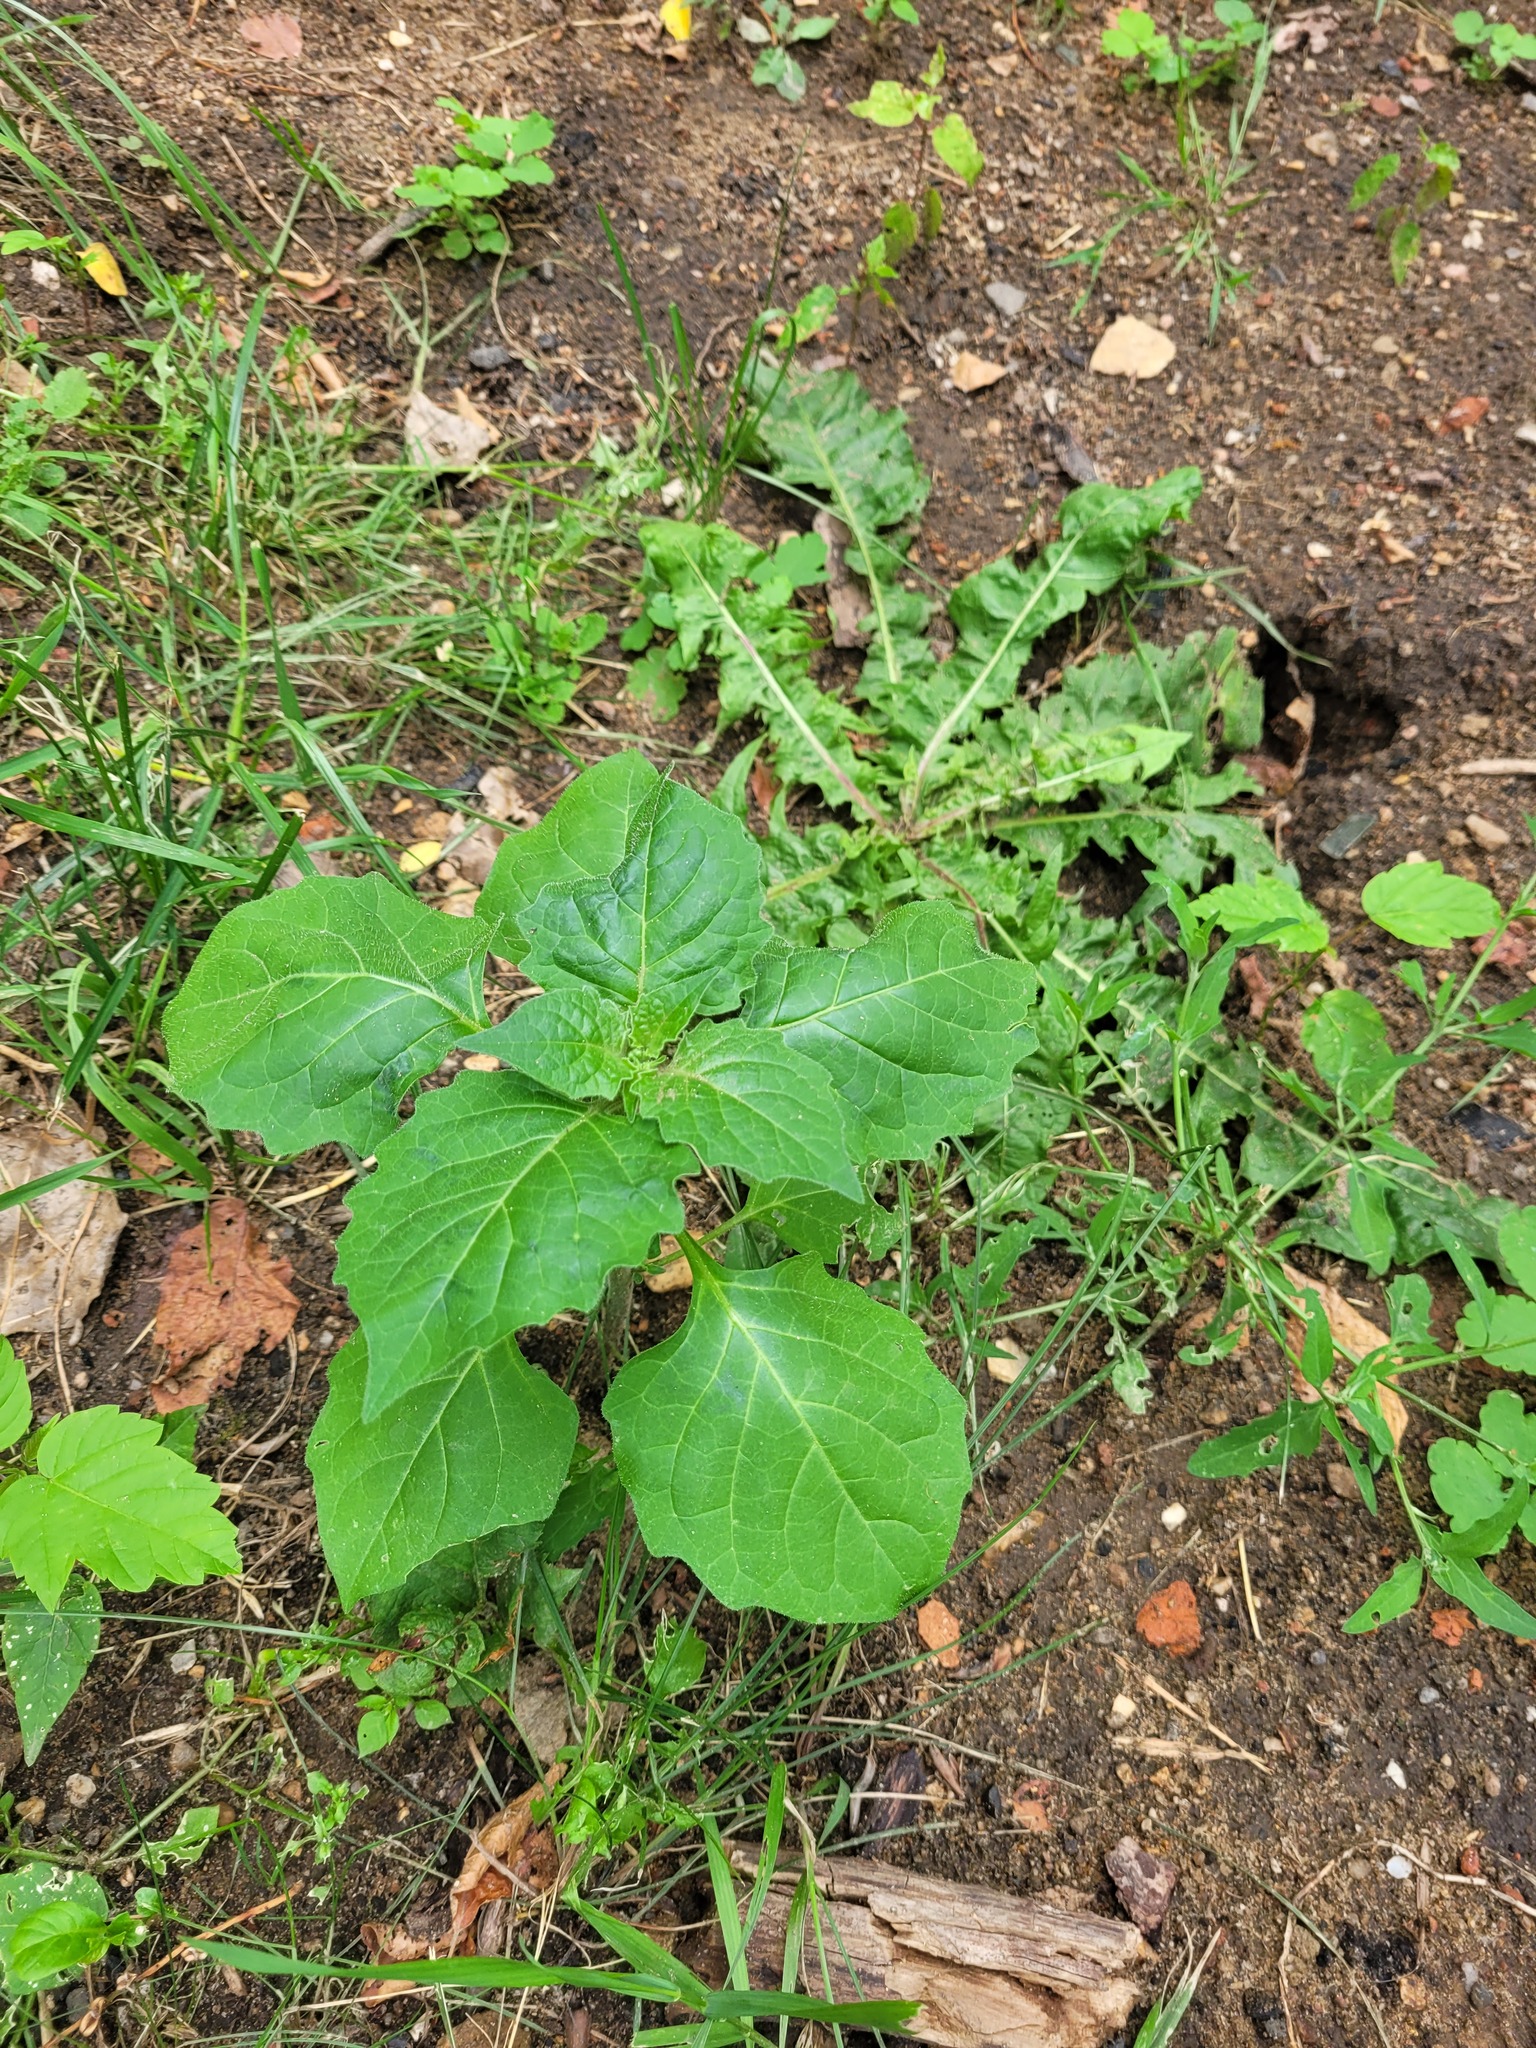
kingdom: Plantae
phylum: Tracheophyta
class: Magnoliopsida
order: Solanales
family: Solanaceae
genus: Solanum
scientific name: Solanum nigrum
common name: Black nightshade
